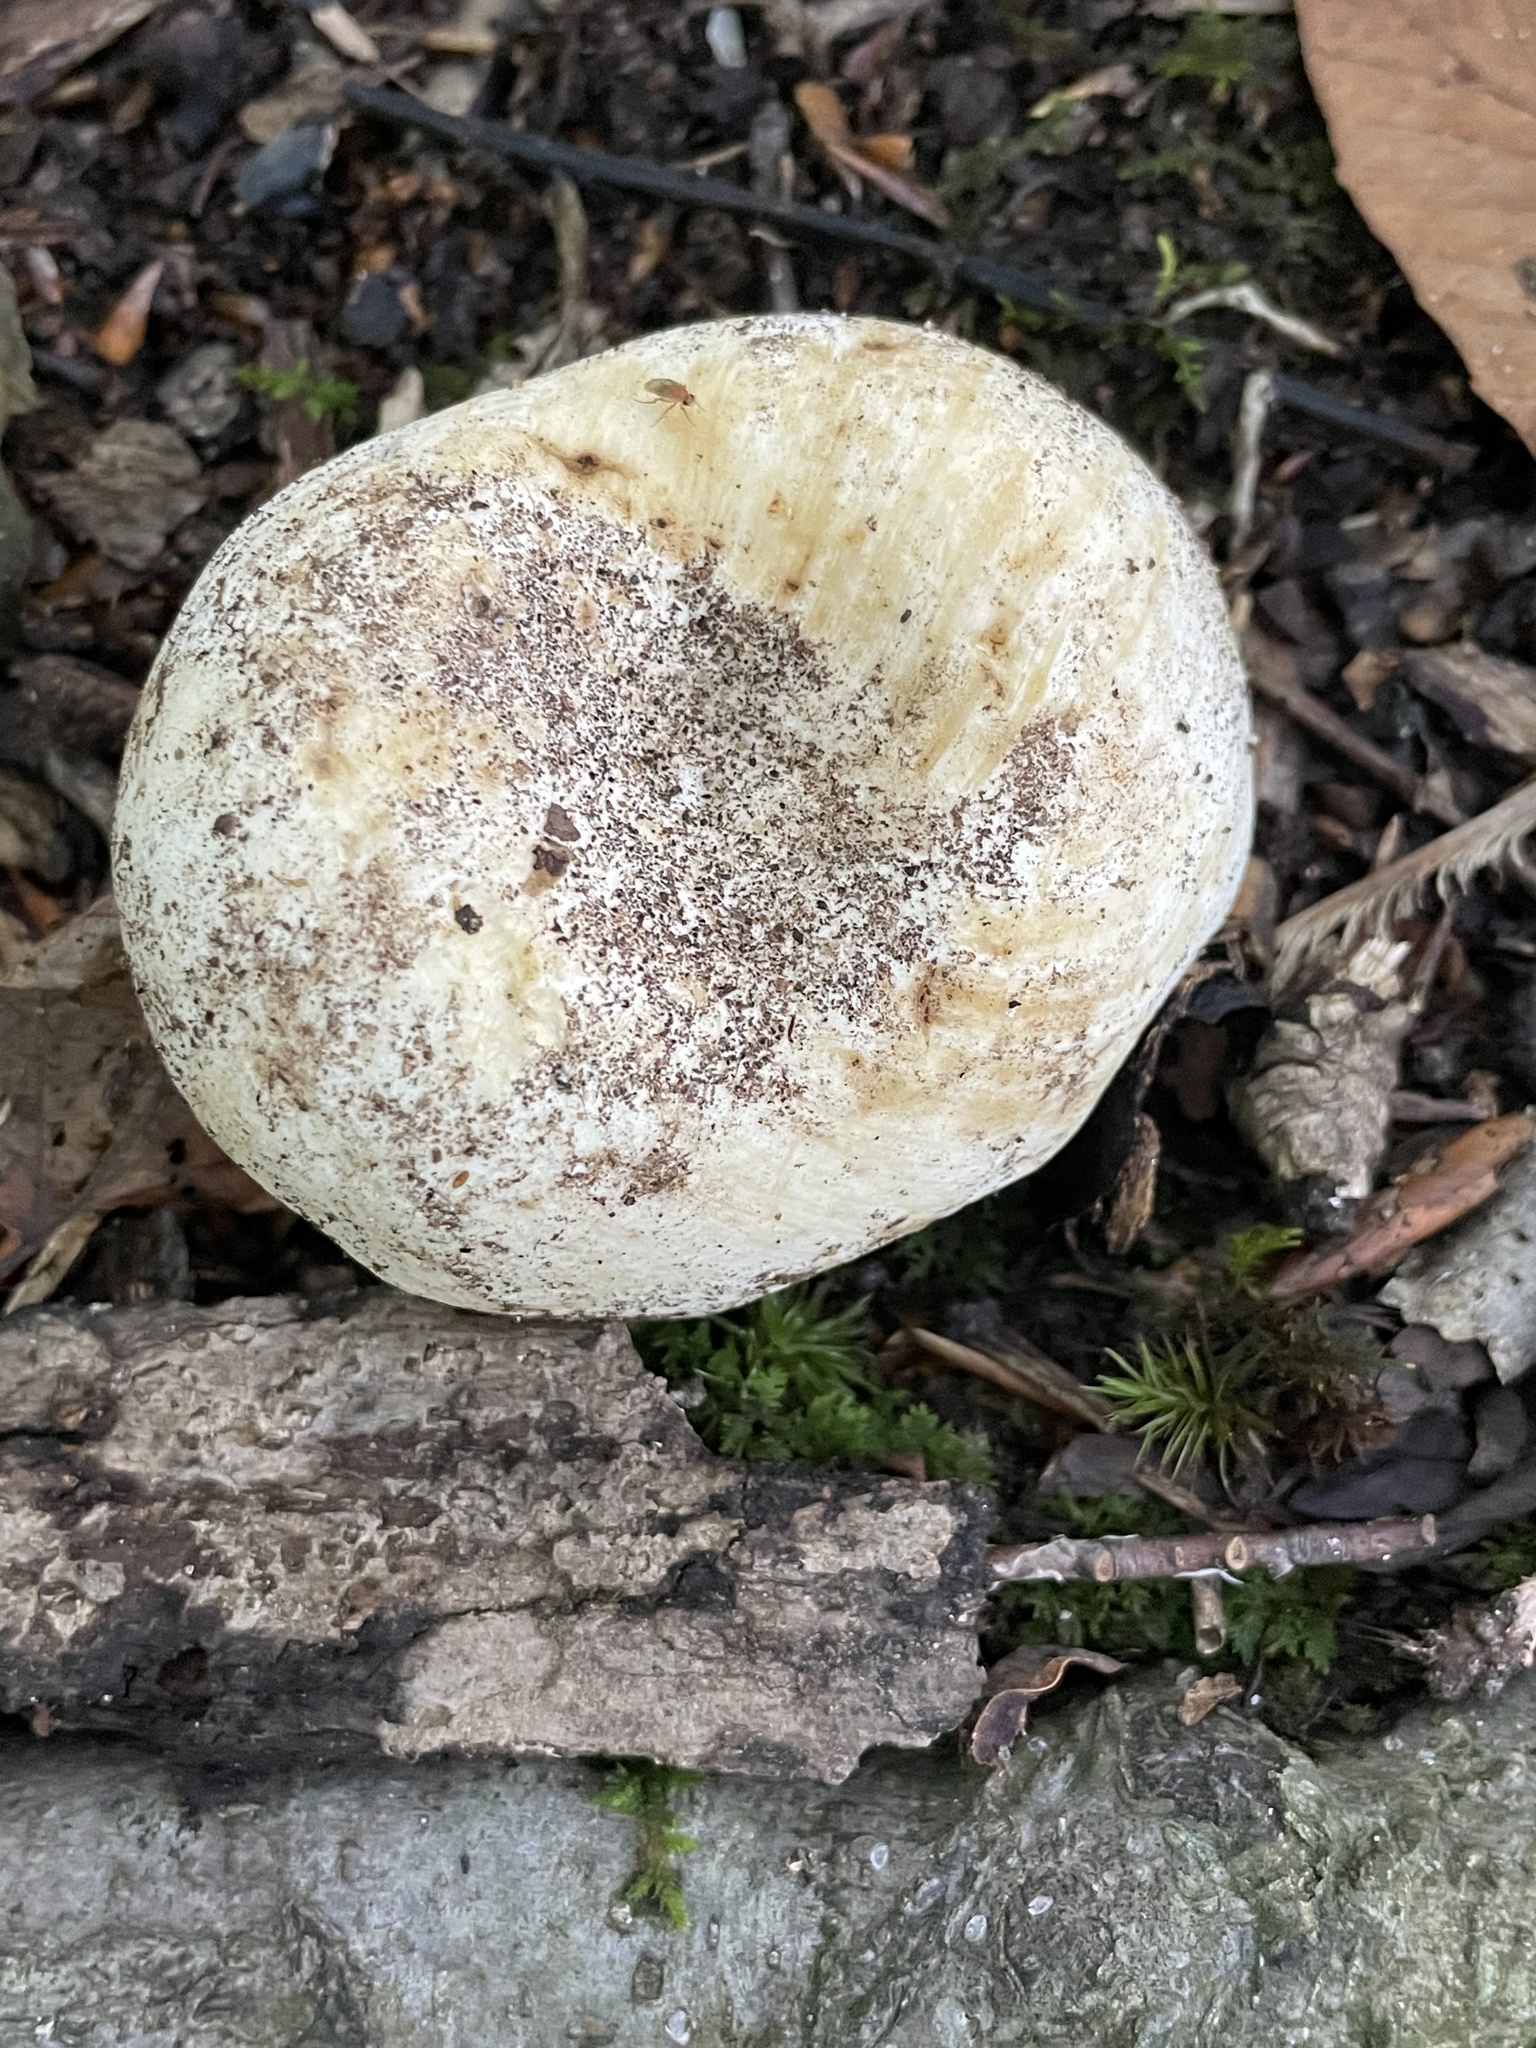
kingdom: Fungi
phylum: Basidiomycota
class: Agaricomycetes
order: Russulales
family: Russulaceae
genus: Lactifluus
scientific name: Lactifluus piperatus
